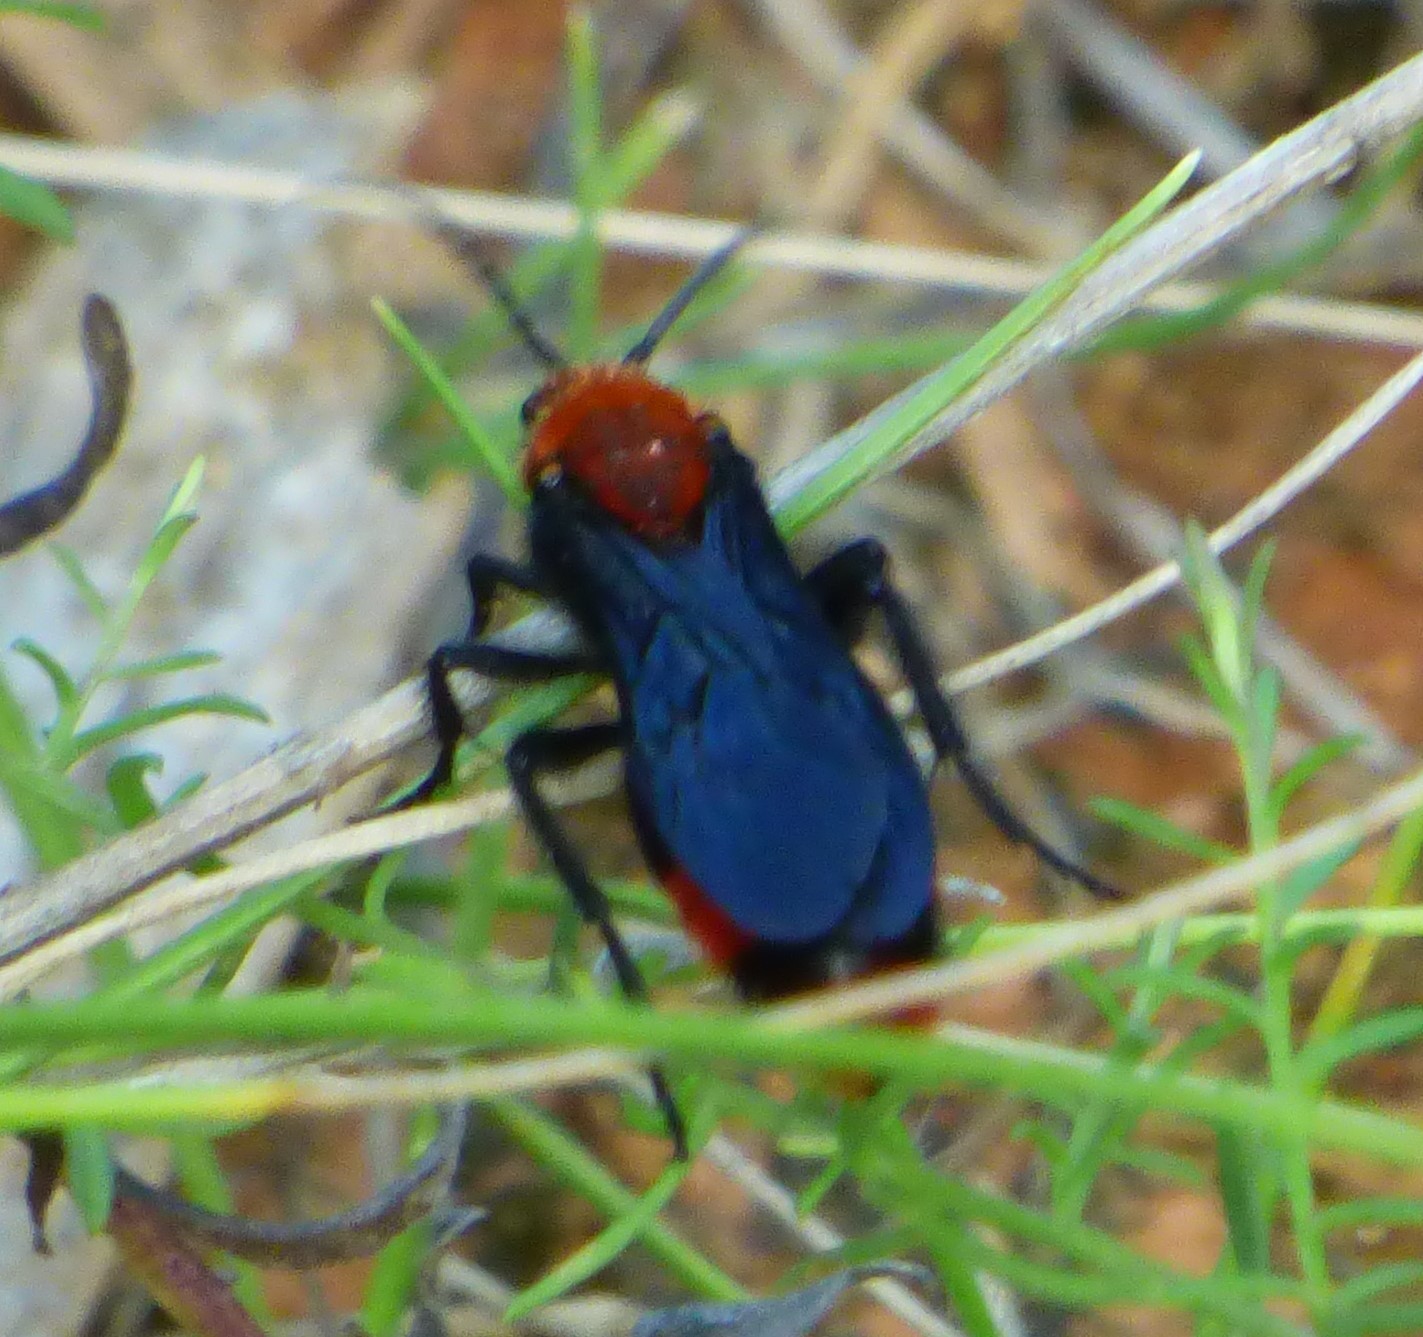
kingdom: Animalia
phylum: Arthropoda
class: Insecta
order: Hymenoptera
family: Mutillidae
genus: Dasymutilla
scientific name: Dasymutilla occidentalis
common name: Common eastern velvet ant
